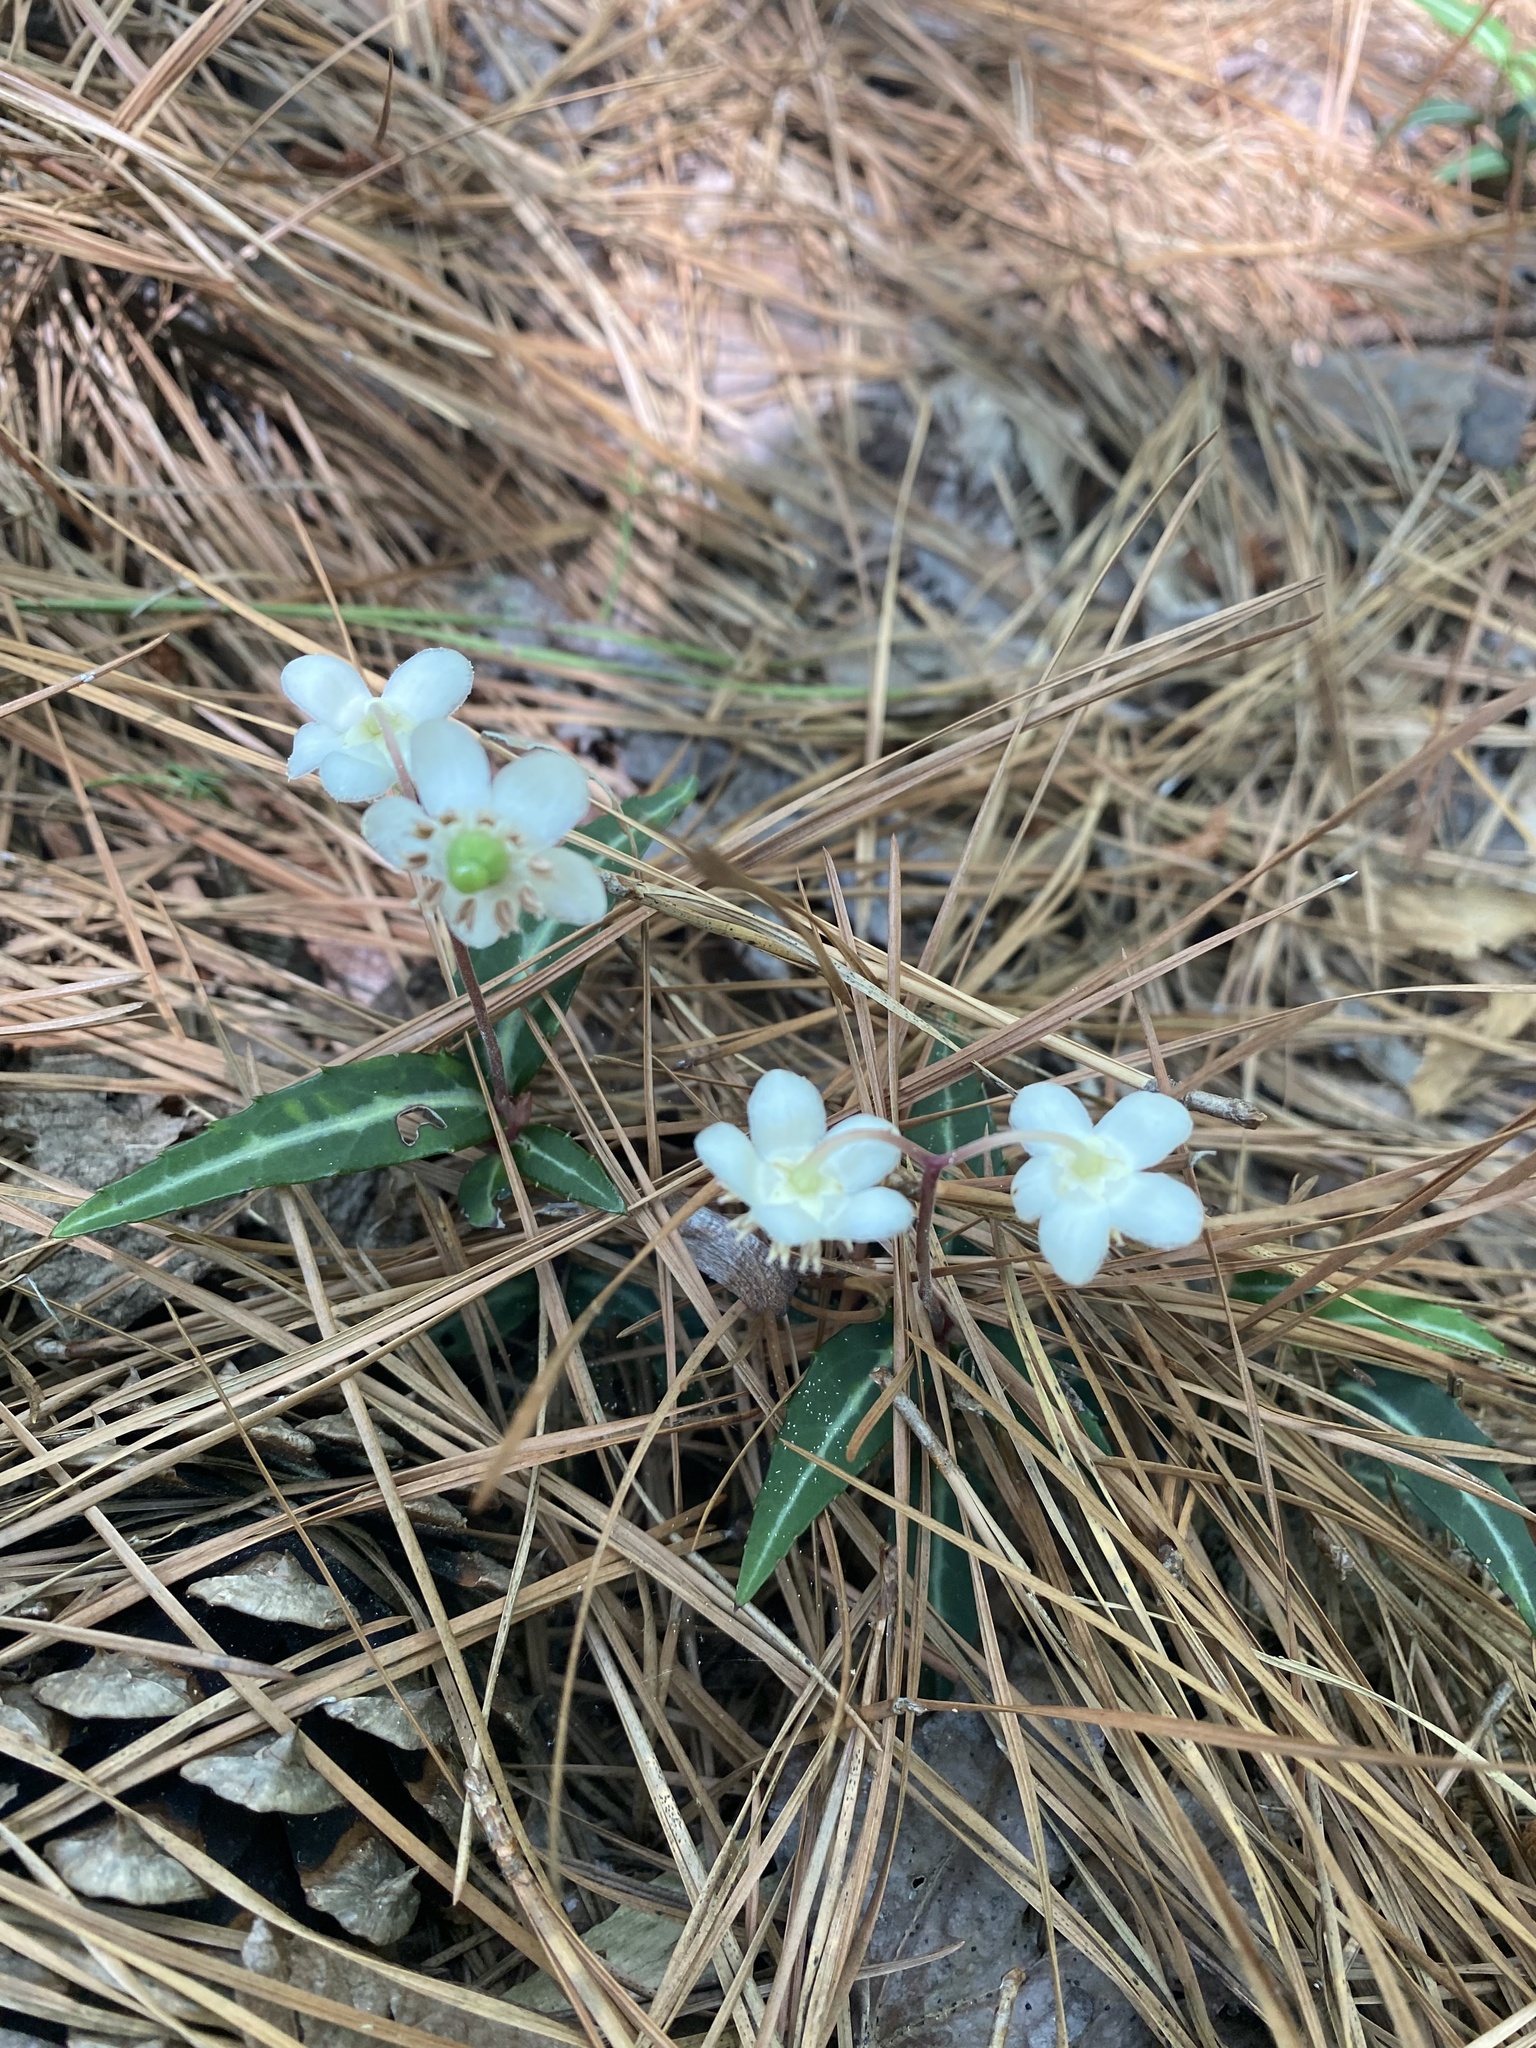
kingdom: Plantae
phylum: Tracheophyta
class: Magnoliopsida
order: Ericales
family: Ericaceae
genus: Chimaphila
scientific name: Chimaphila maculata
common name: Spotted pipsissewa
